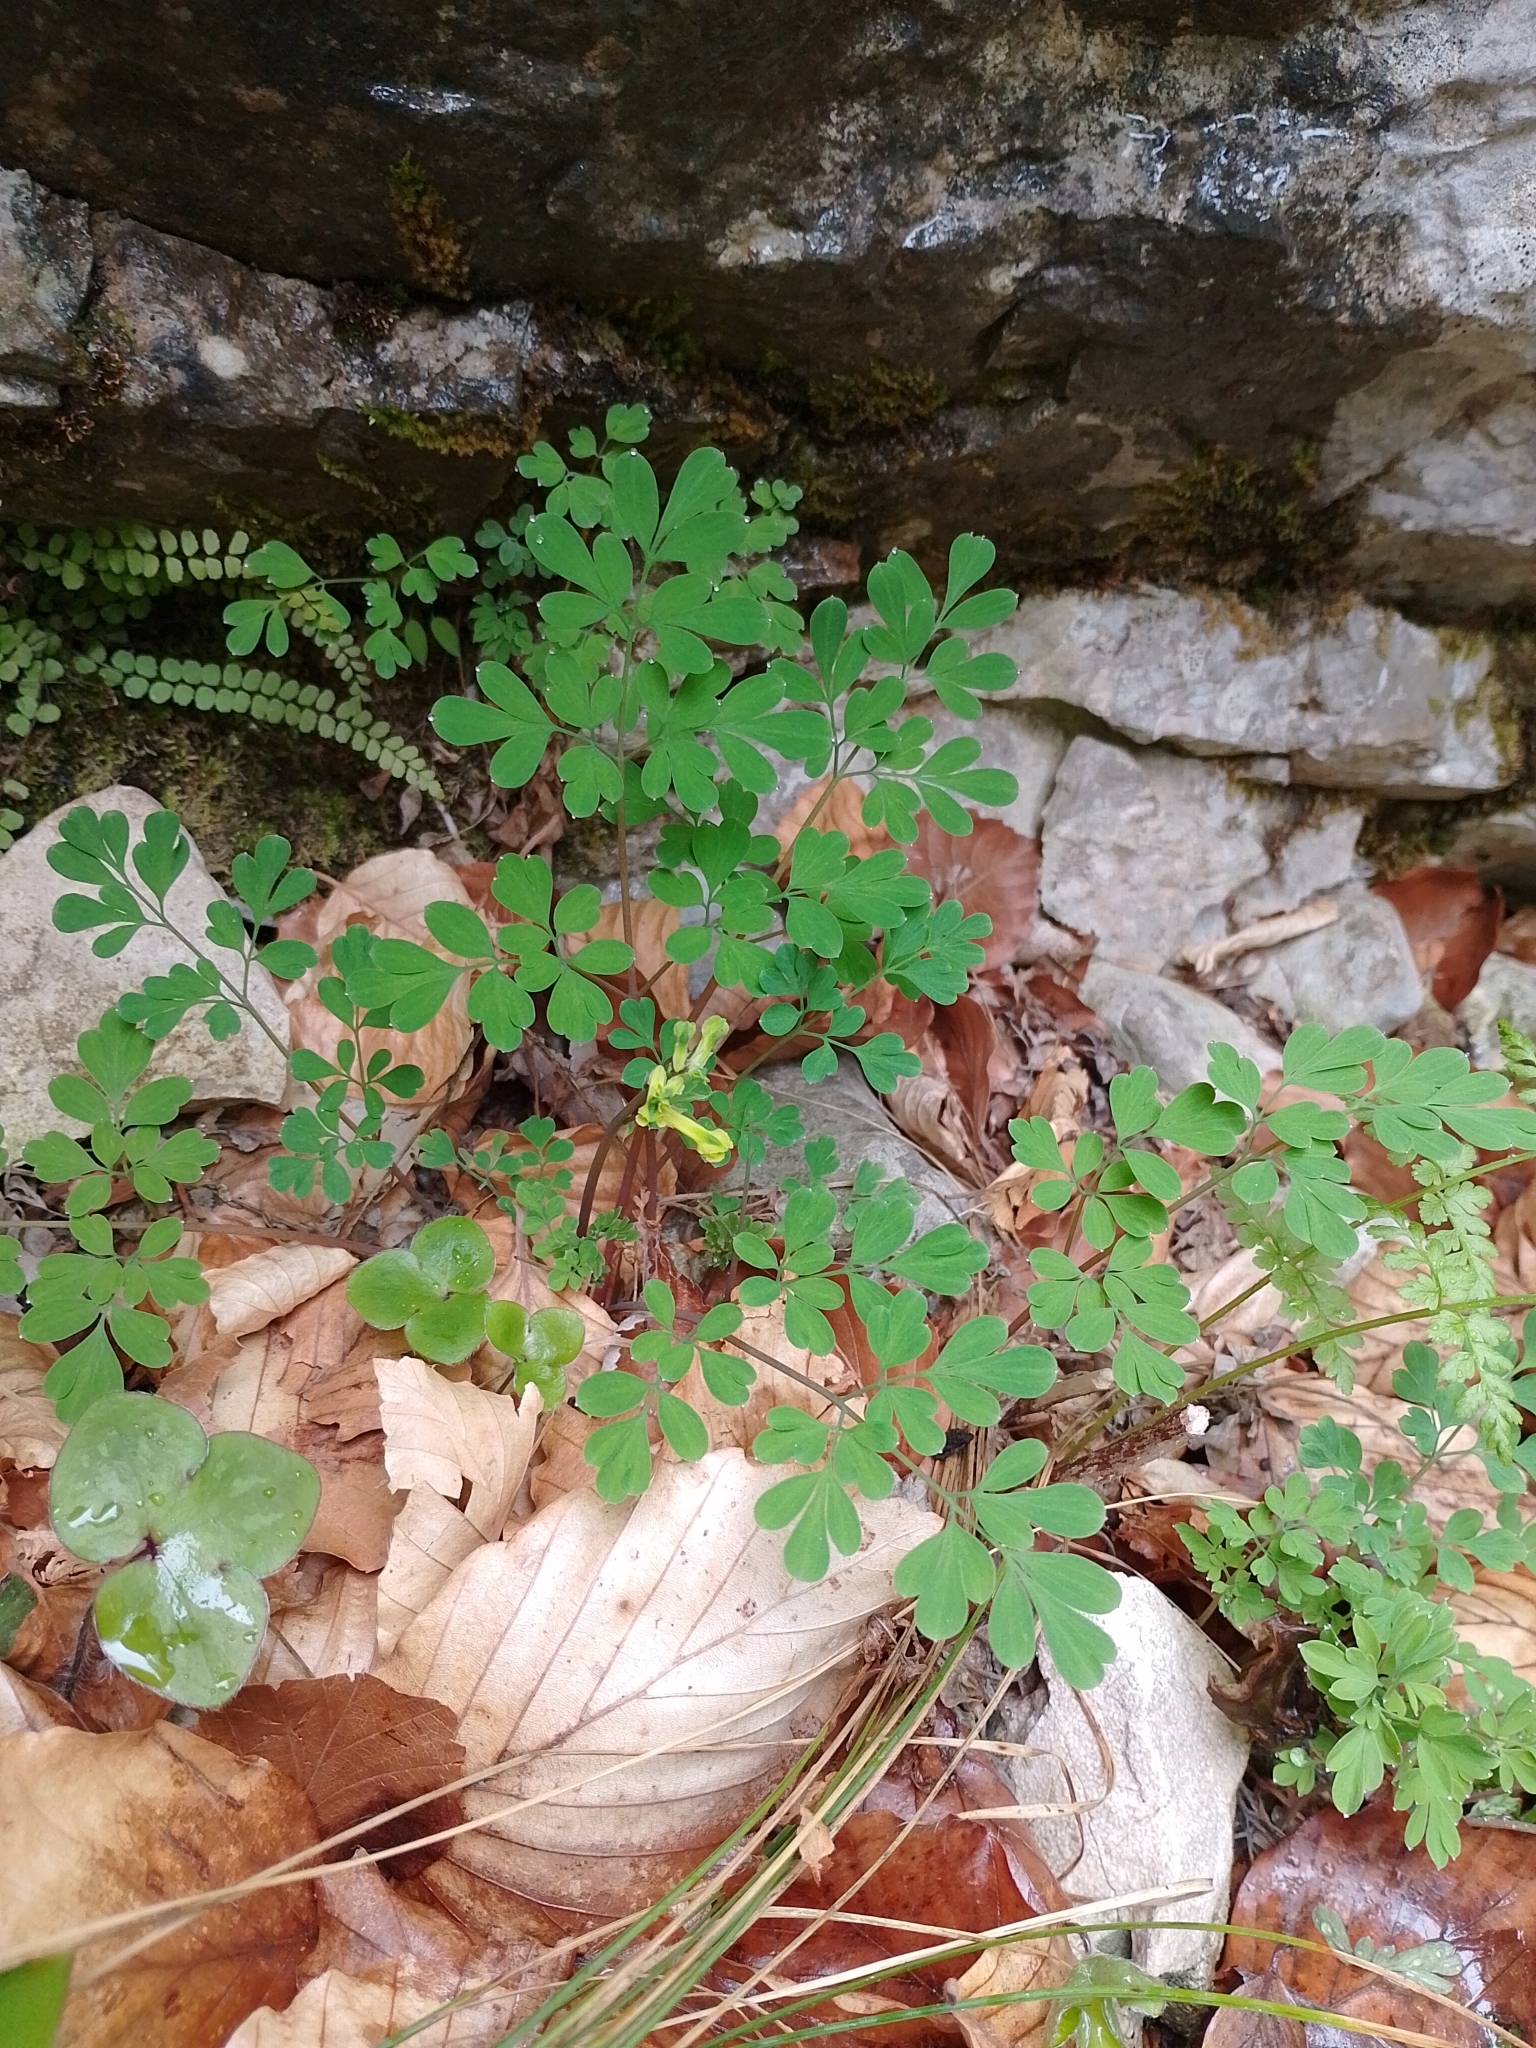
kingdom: Plantae
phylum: Tracheophyta
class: Magnoliopsida
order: Ranunculales
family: Papaveraceae
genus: Pseudofumaria
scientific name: Pseudofumaria lutea
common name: Yellow corydalis
